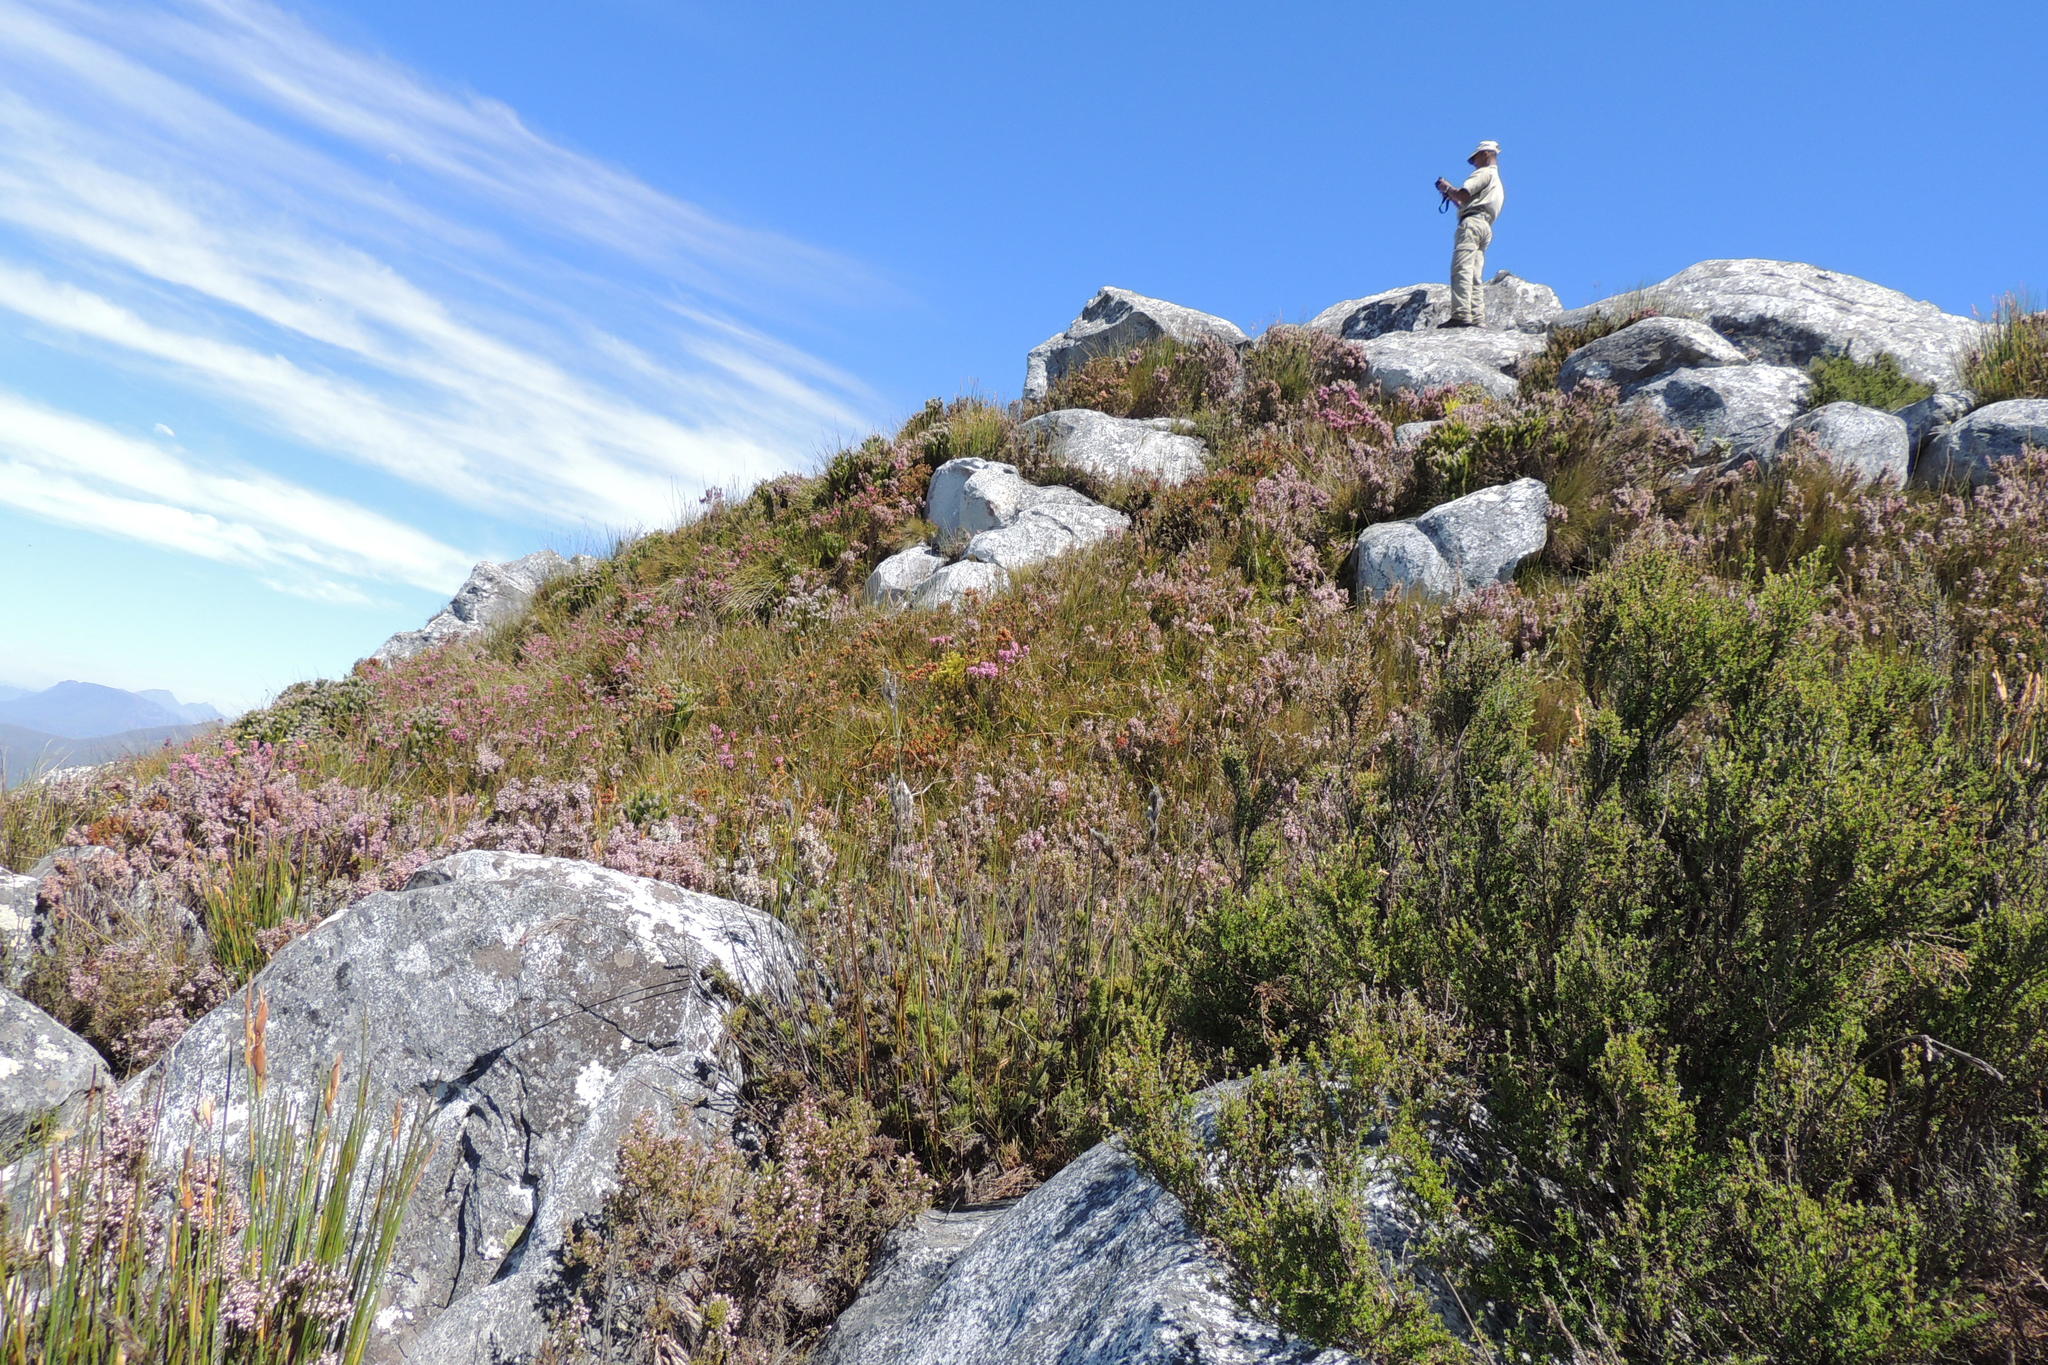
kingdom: Plantae
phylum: Tracheophyta
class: Magnoliopsida
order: Proteales
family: Proteaceae
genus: Spatalla
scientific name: Spatalla nubicola
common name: Medusa spoon
